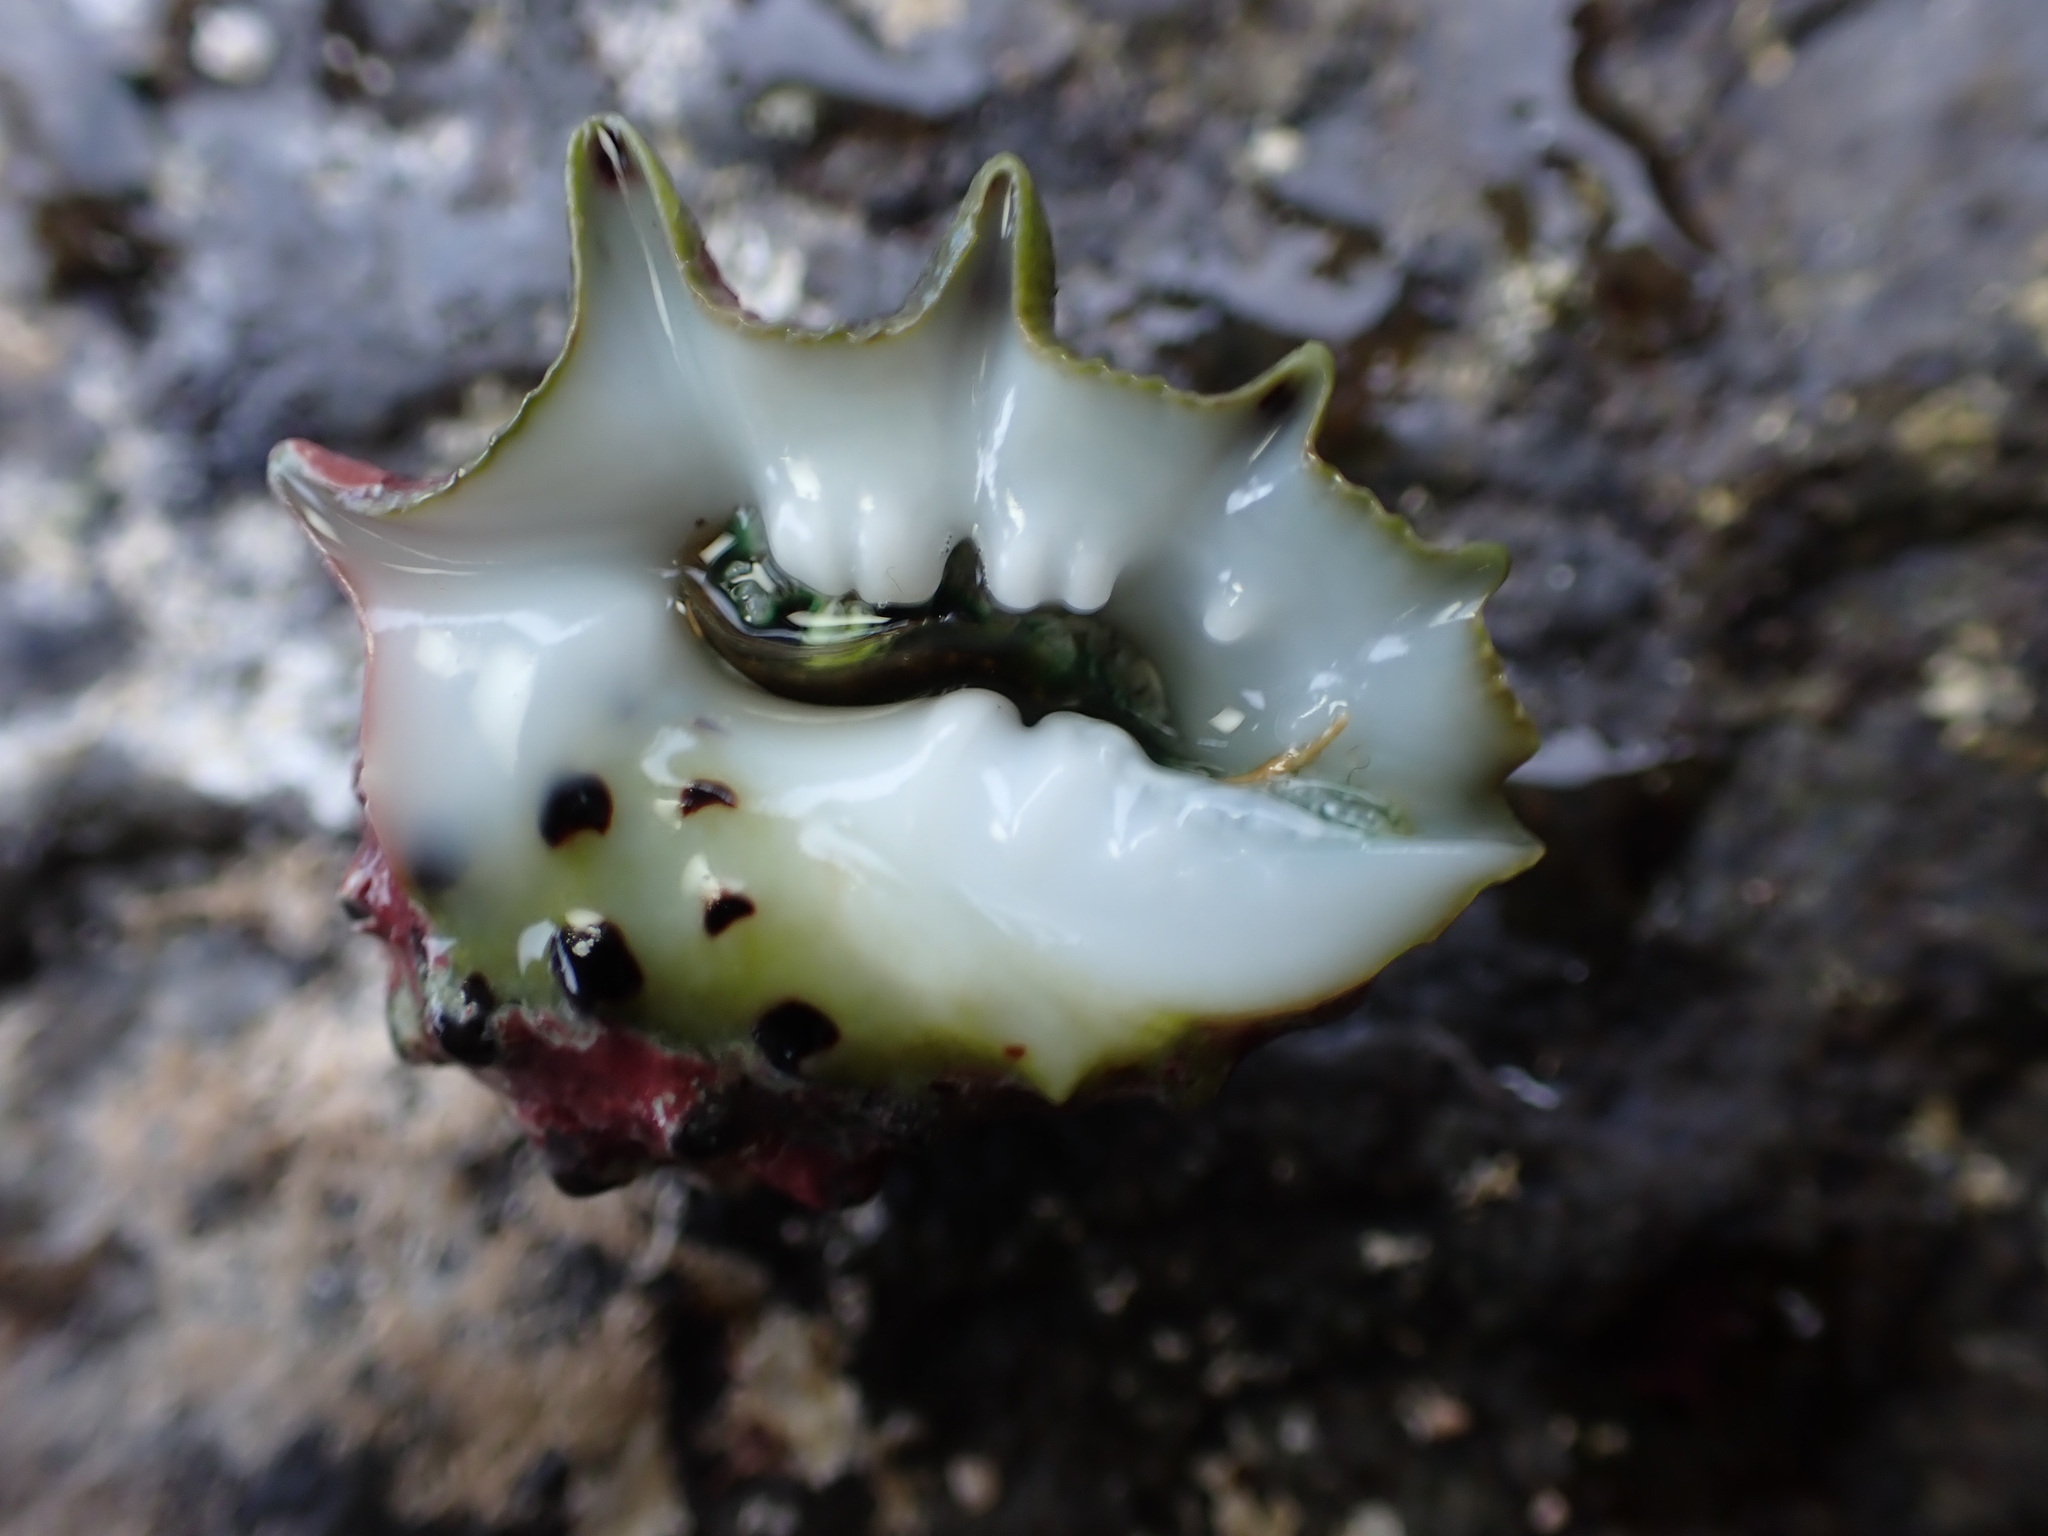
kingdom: Animalia
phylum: Mollusca
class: Gastropoda
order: Neogastropoda
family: Muricidae
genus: Drupa
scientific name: Drupa ricinus
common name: White-lipped castor bean
